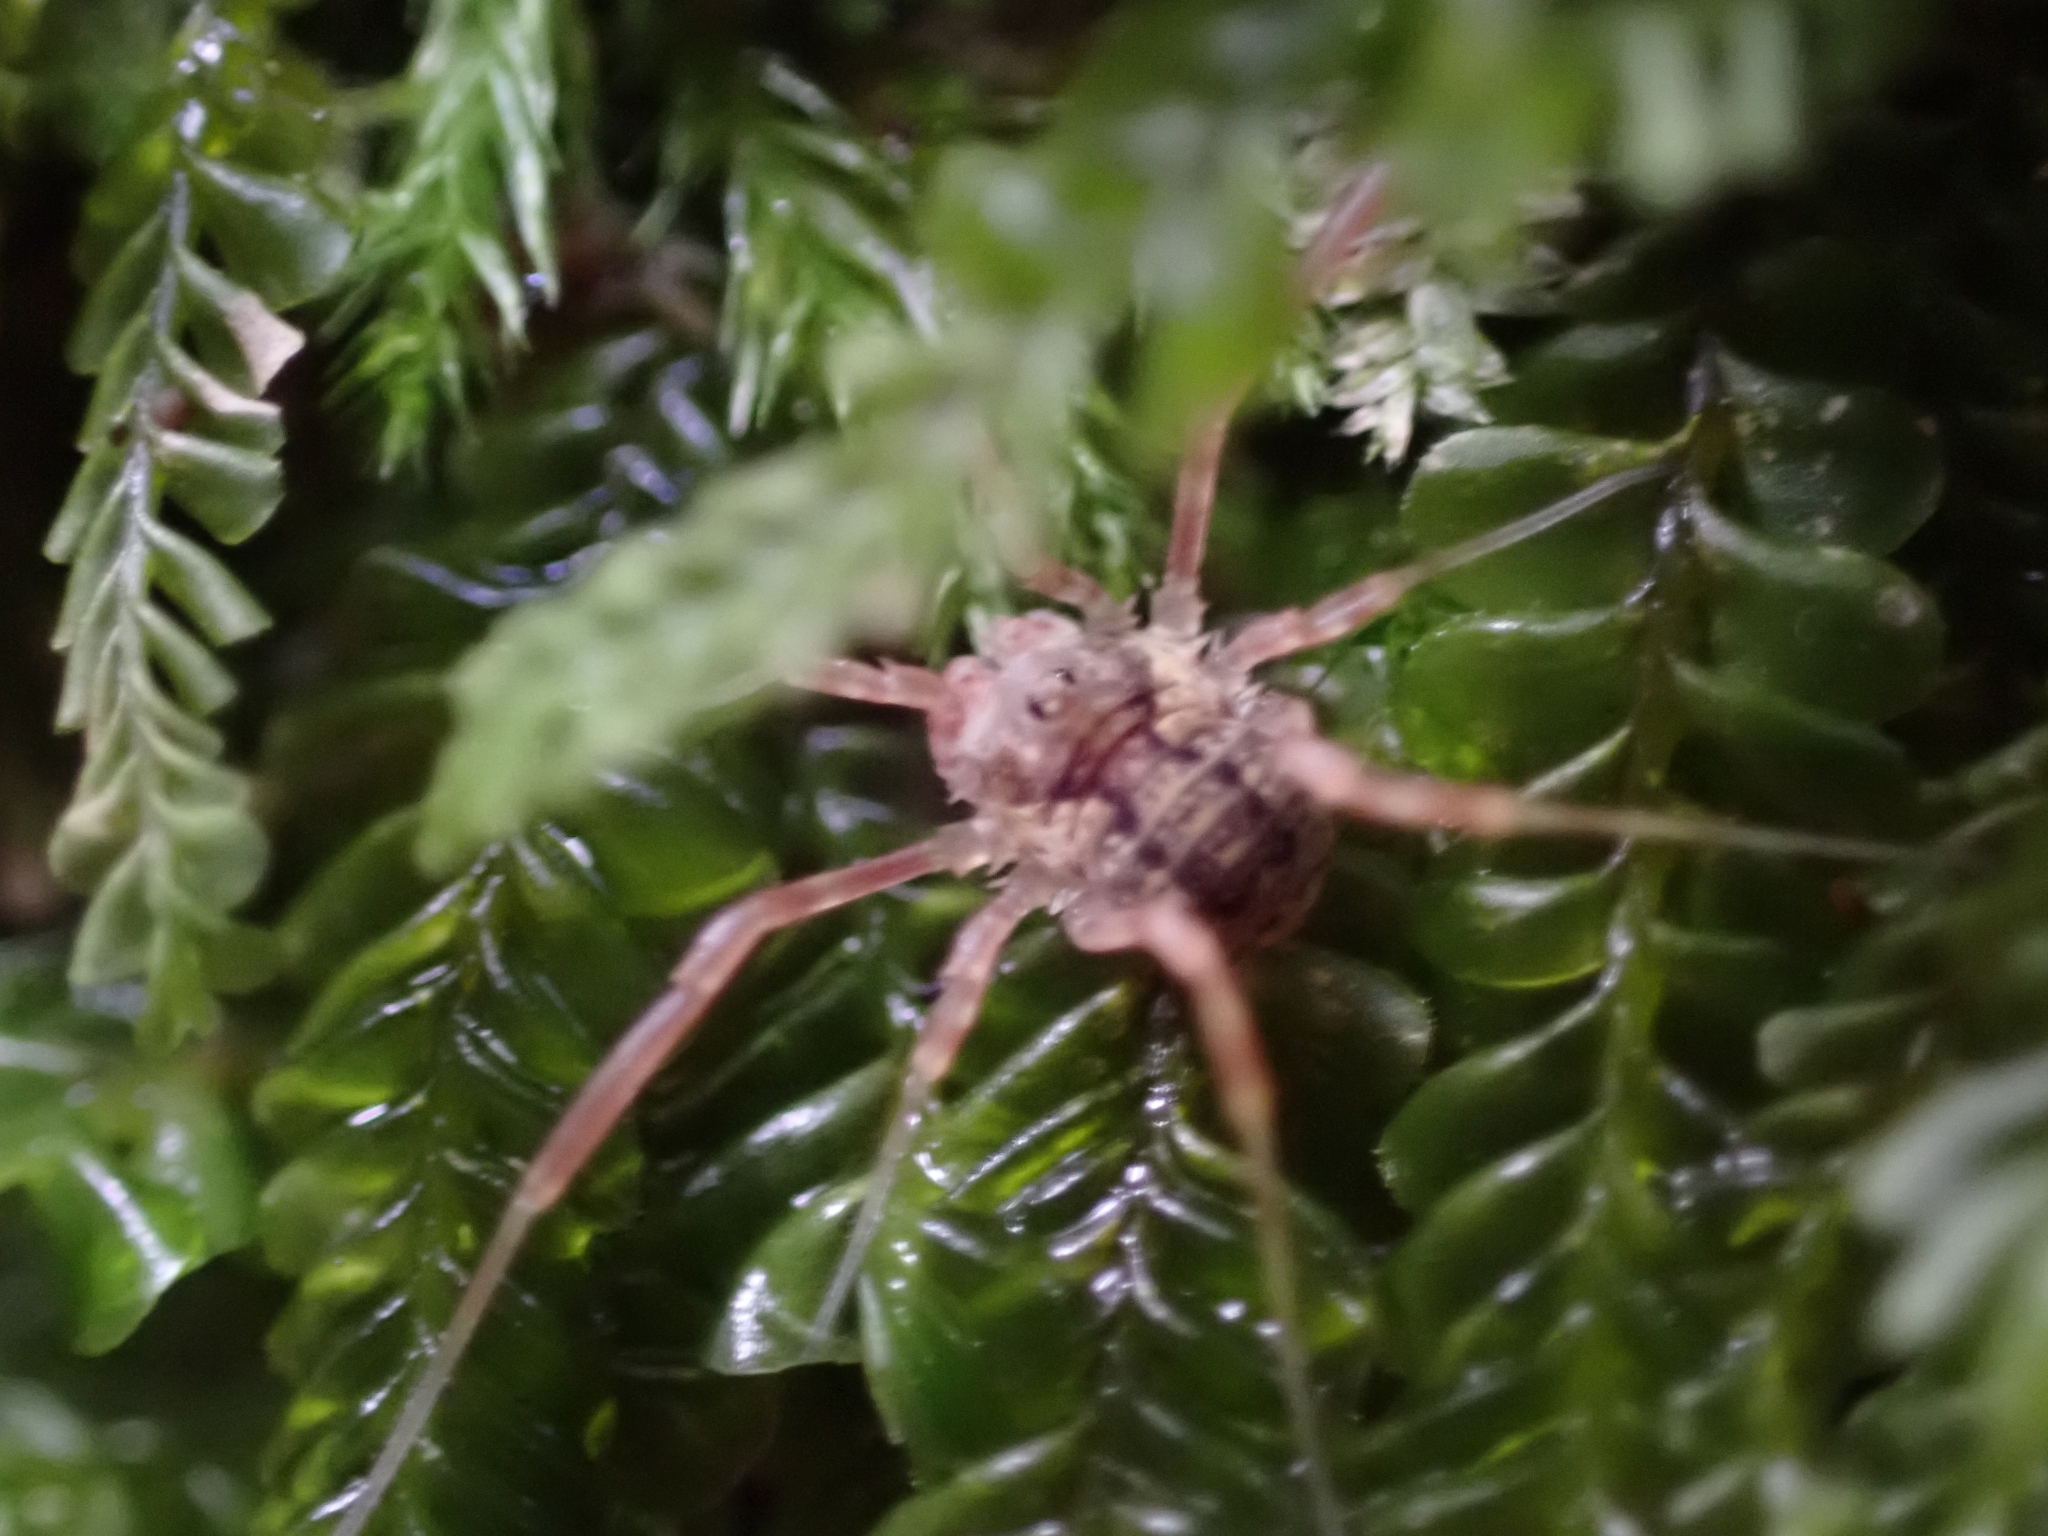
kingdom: Animalia
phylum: Arthropoda
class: Arachnida
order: Opiliones
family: Phalangiidae
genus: Lophopilio
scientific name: Lophopilio palpinalis
